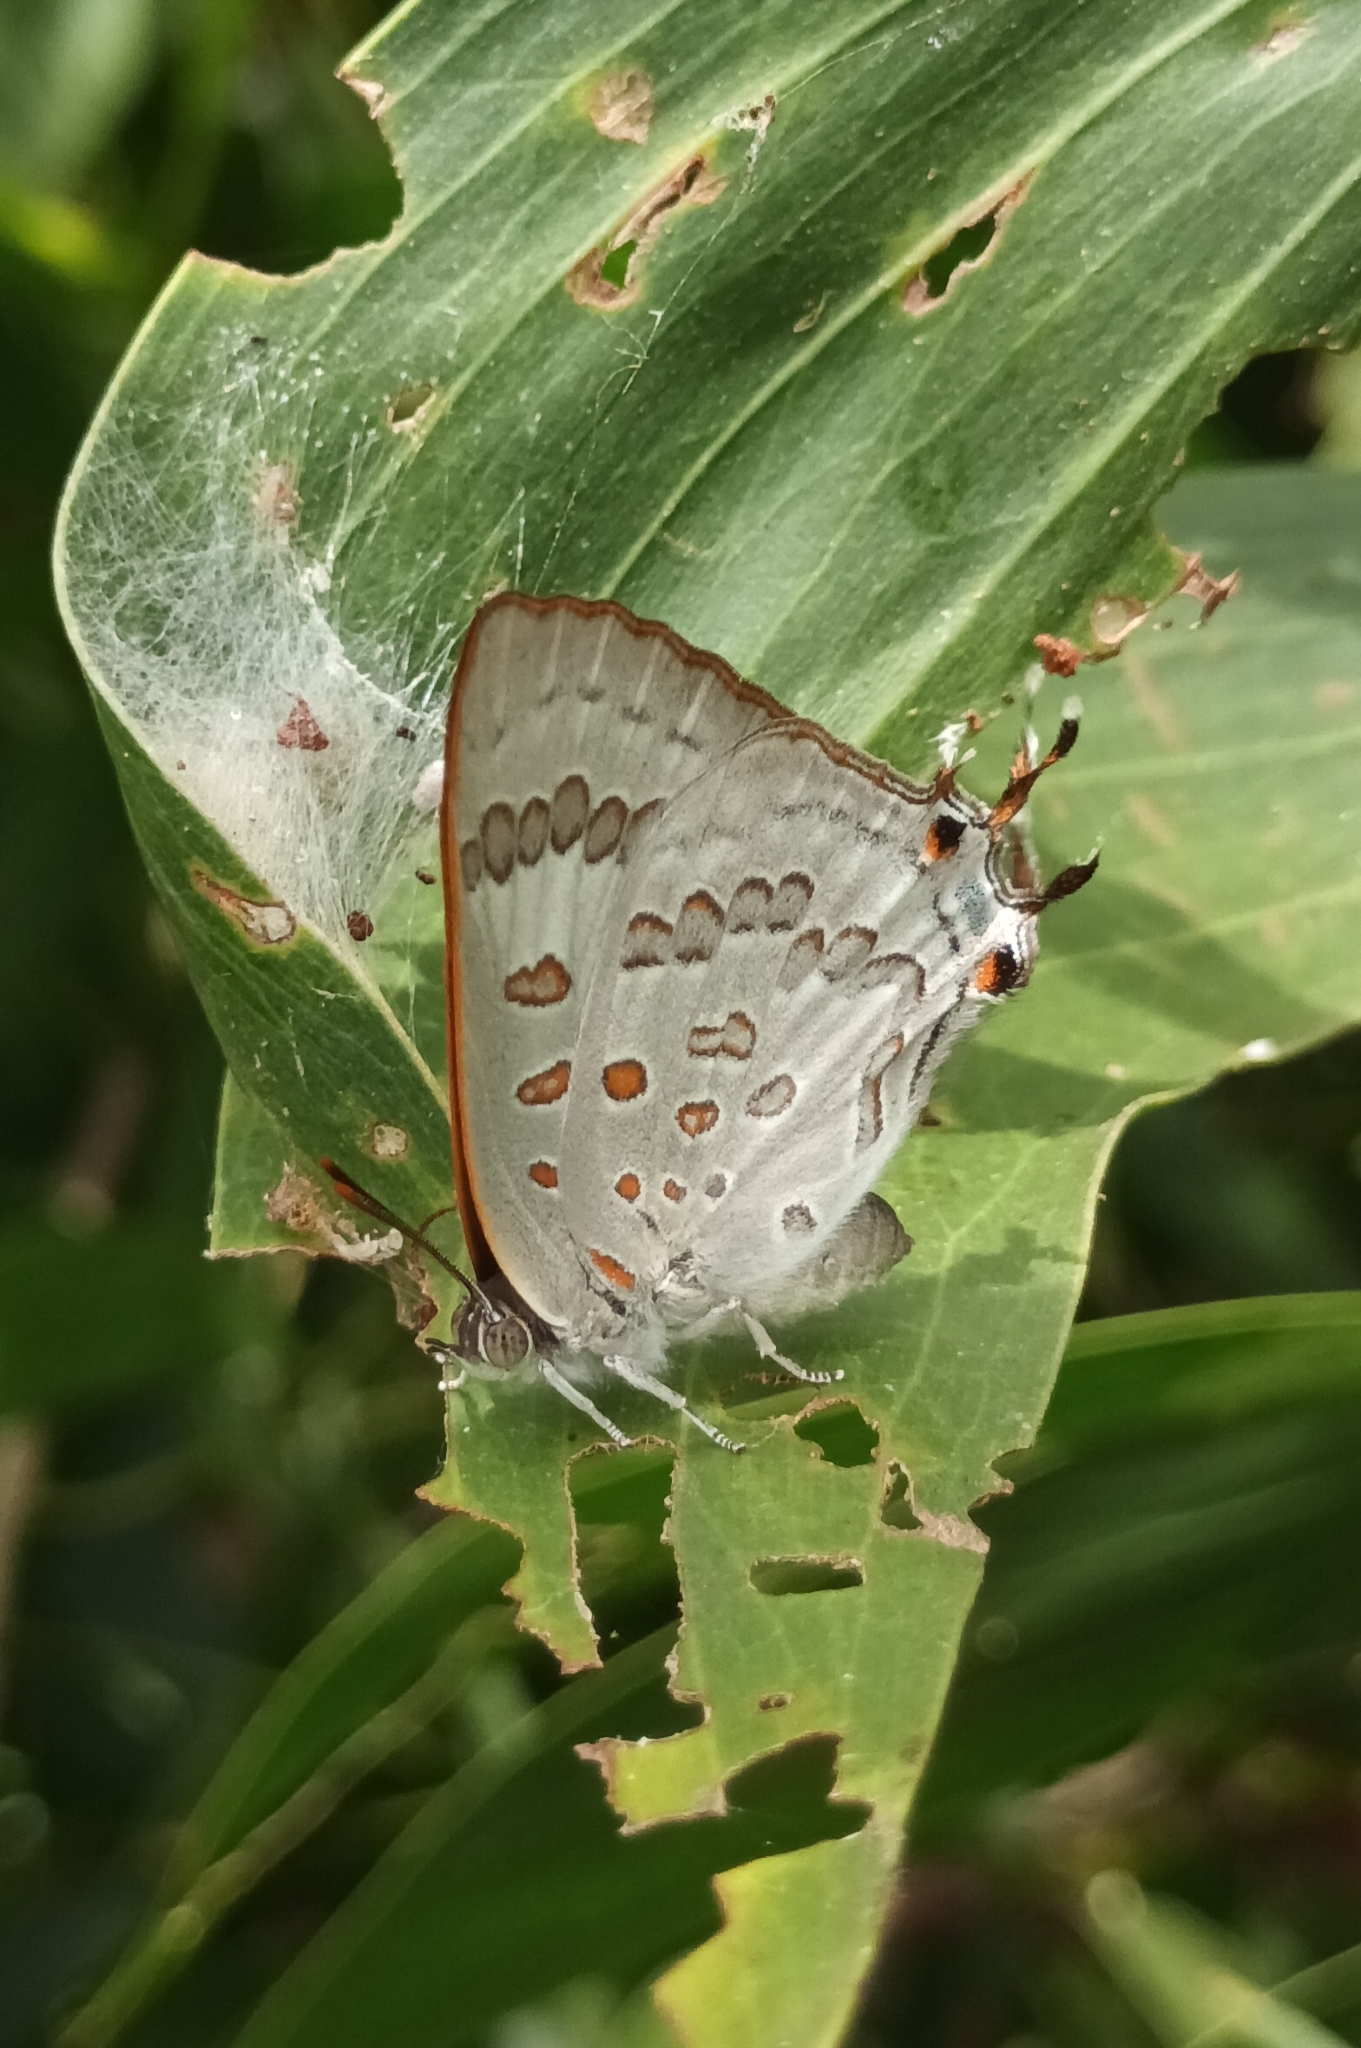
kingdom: Animalia
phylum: Arthropoda
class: Insecta
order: Lepidoptera
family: Lycaenidae
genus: Zesius
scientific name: Zesius chrysomallus
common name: Redspot
